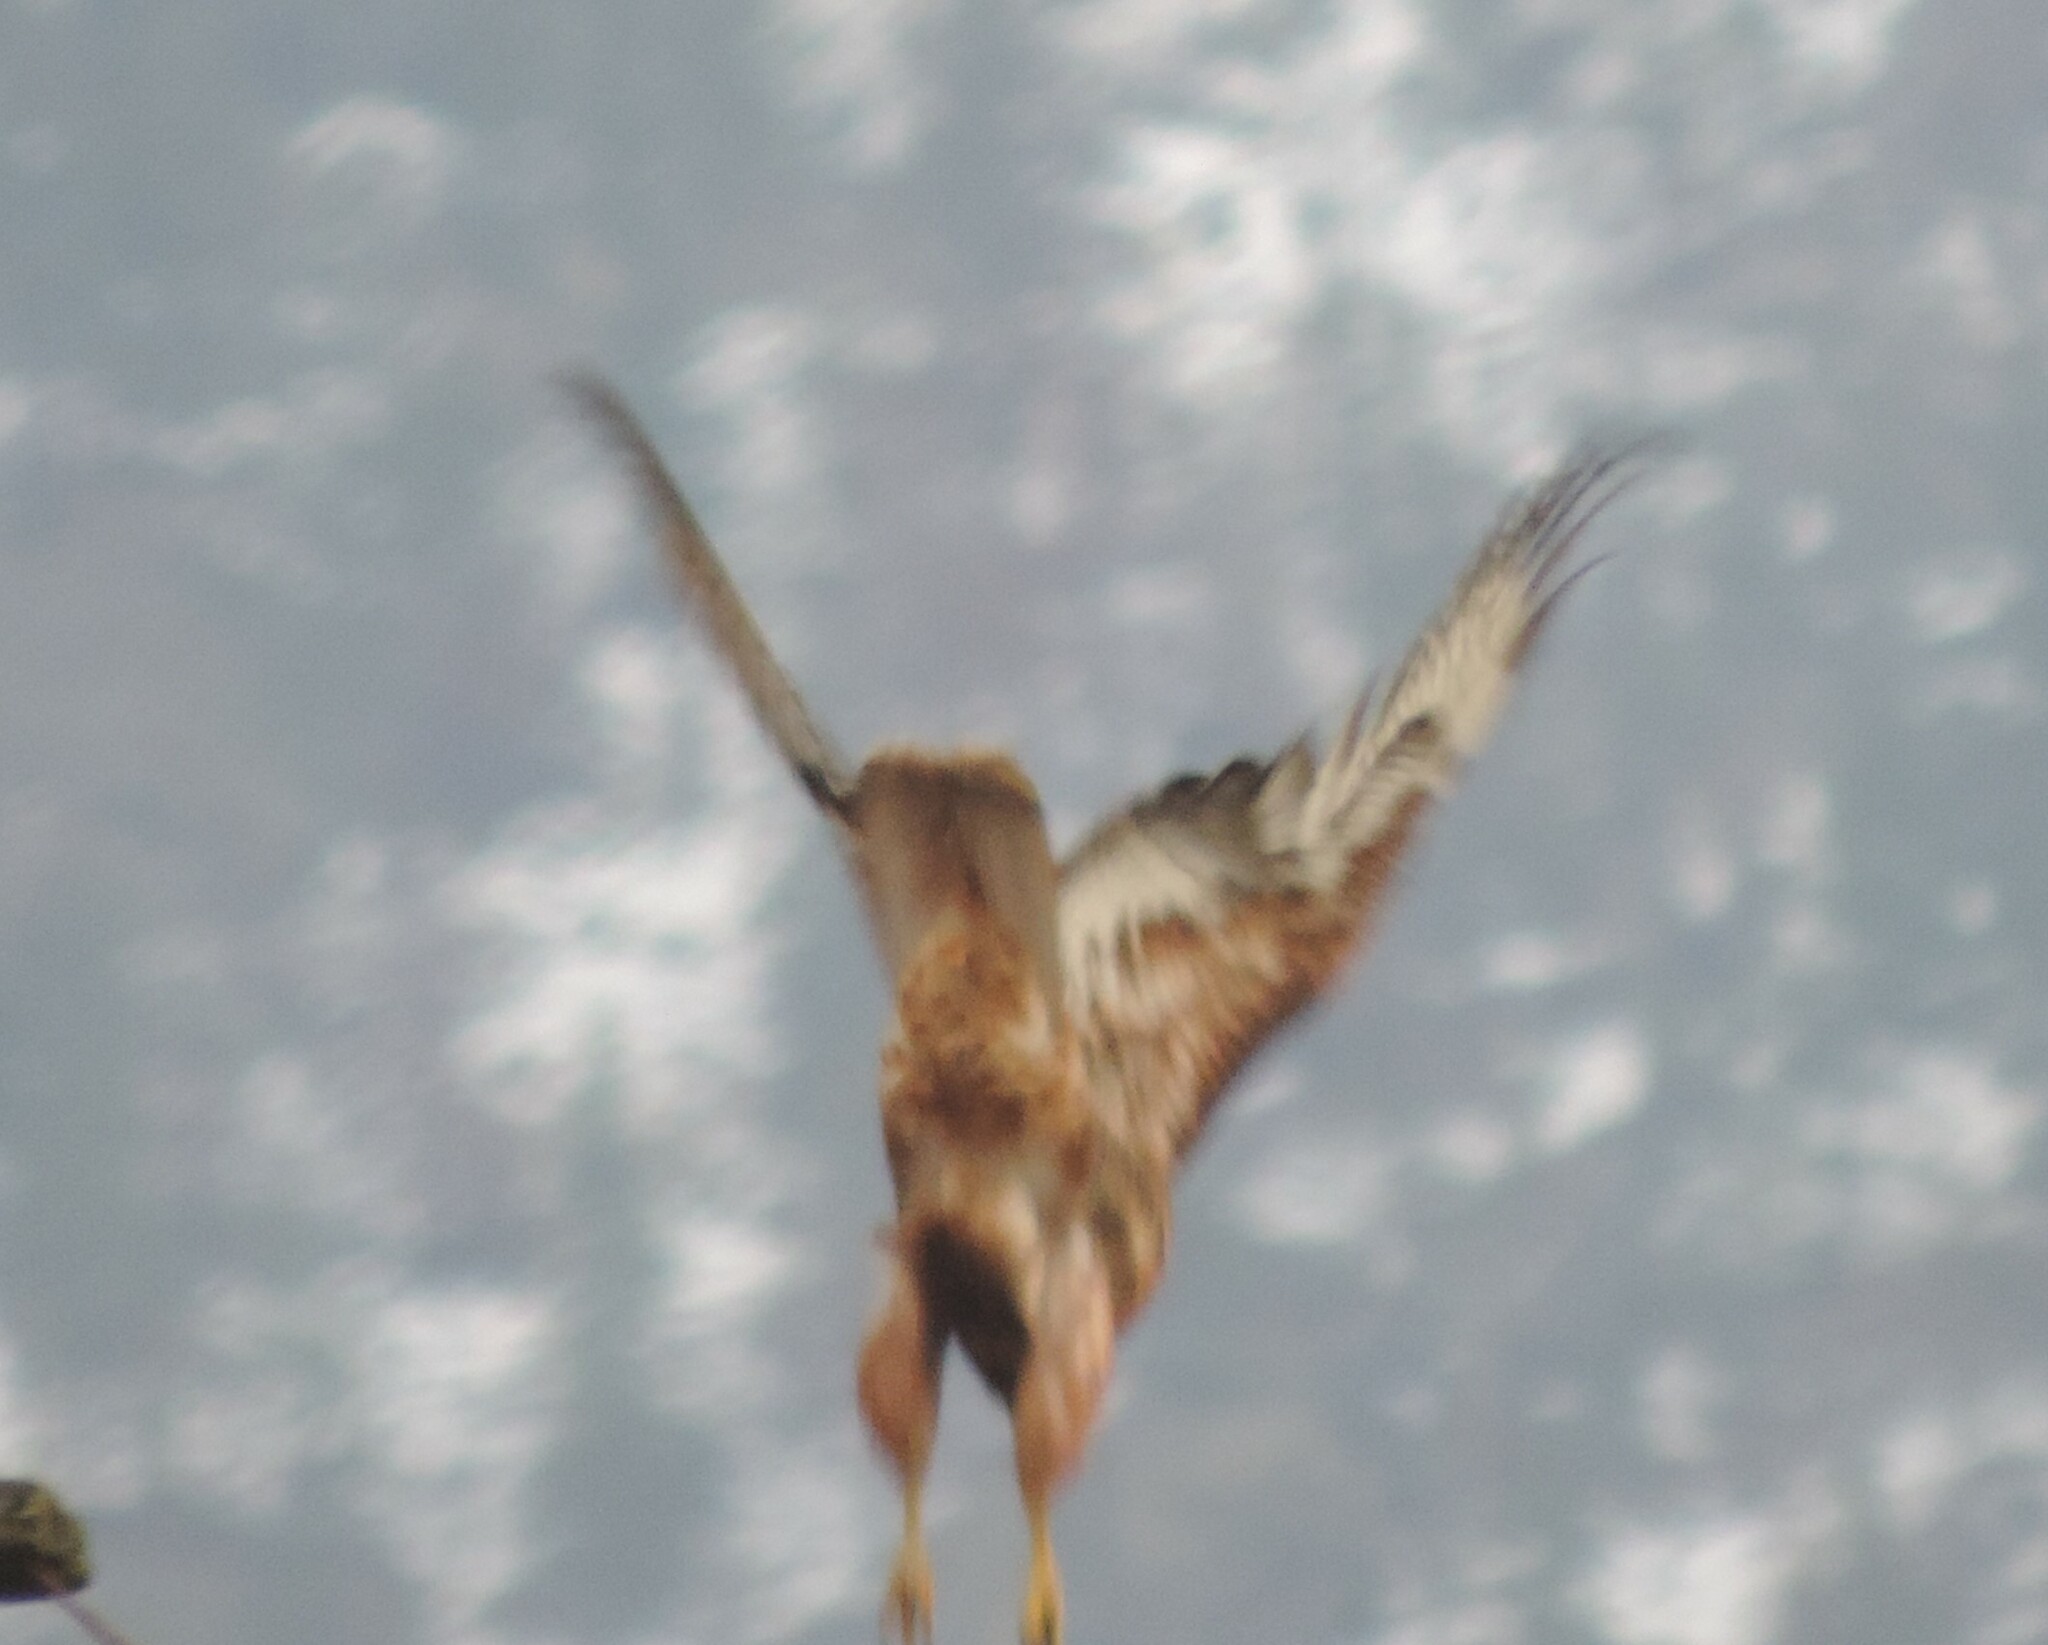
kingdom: Animalia
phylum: Chordata
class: Aves
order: Accipitriformes
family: Accipitridae
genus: Buteo
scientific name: Buteo jamaicensis
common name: Red-tailed hawk
